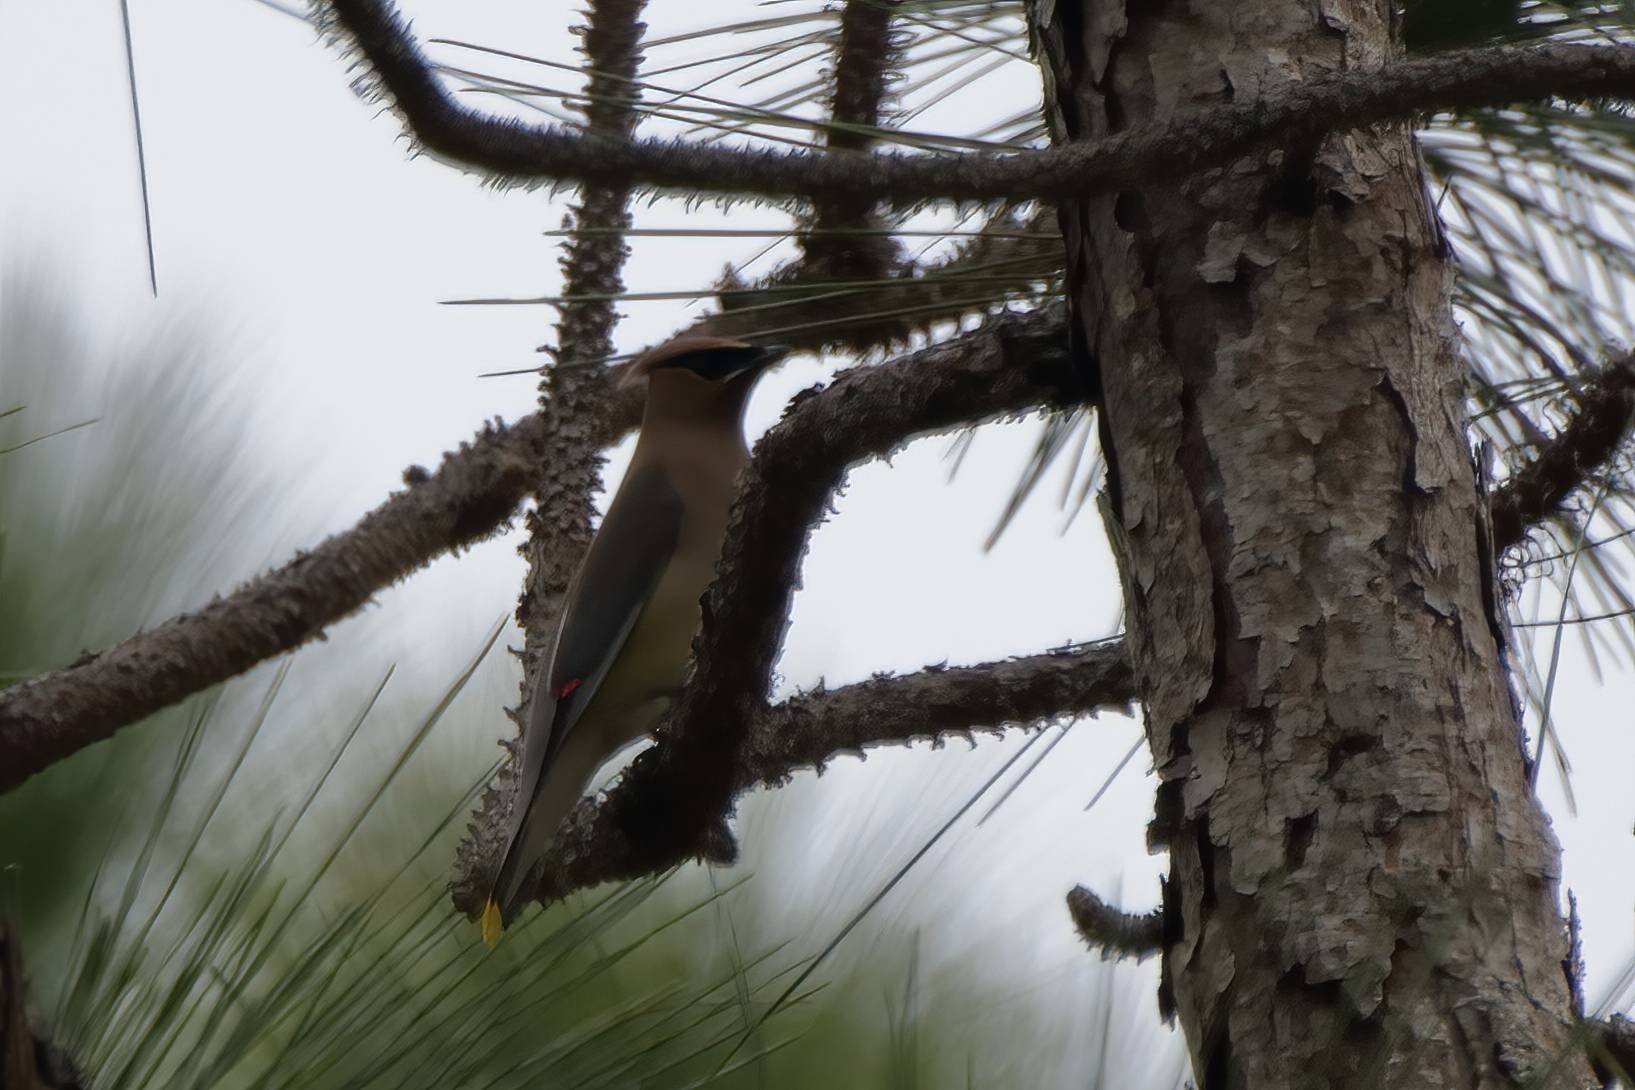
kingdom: Animalia
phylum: Chordata
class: Aves
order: Passeriformes
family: Bombycillidae
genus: Bombycilla
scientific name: Bombycilla cedrorum
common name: Cedar waxwing
